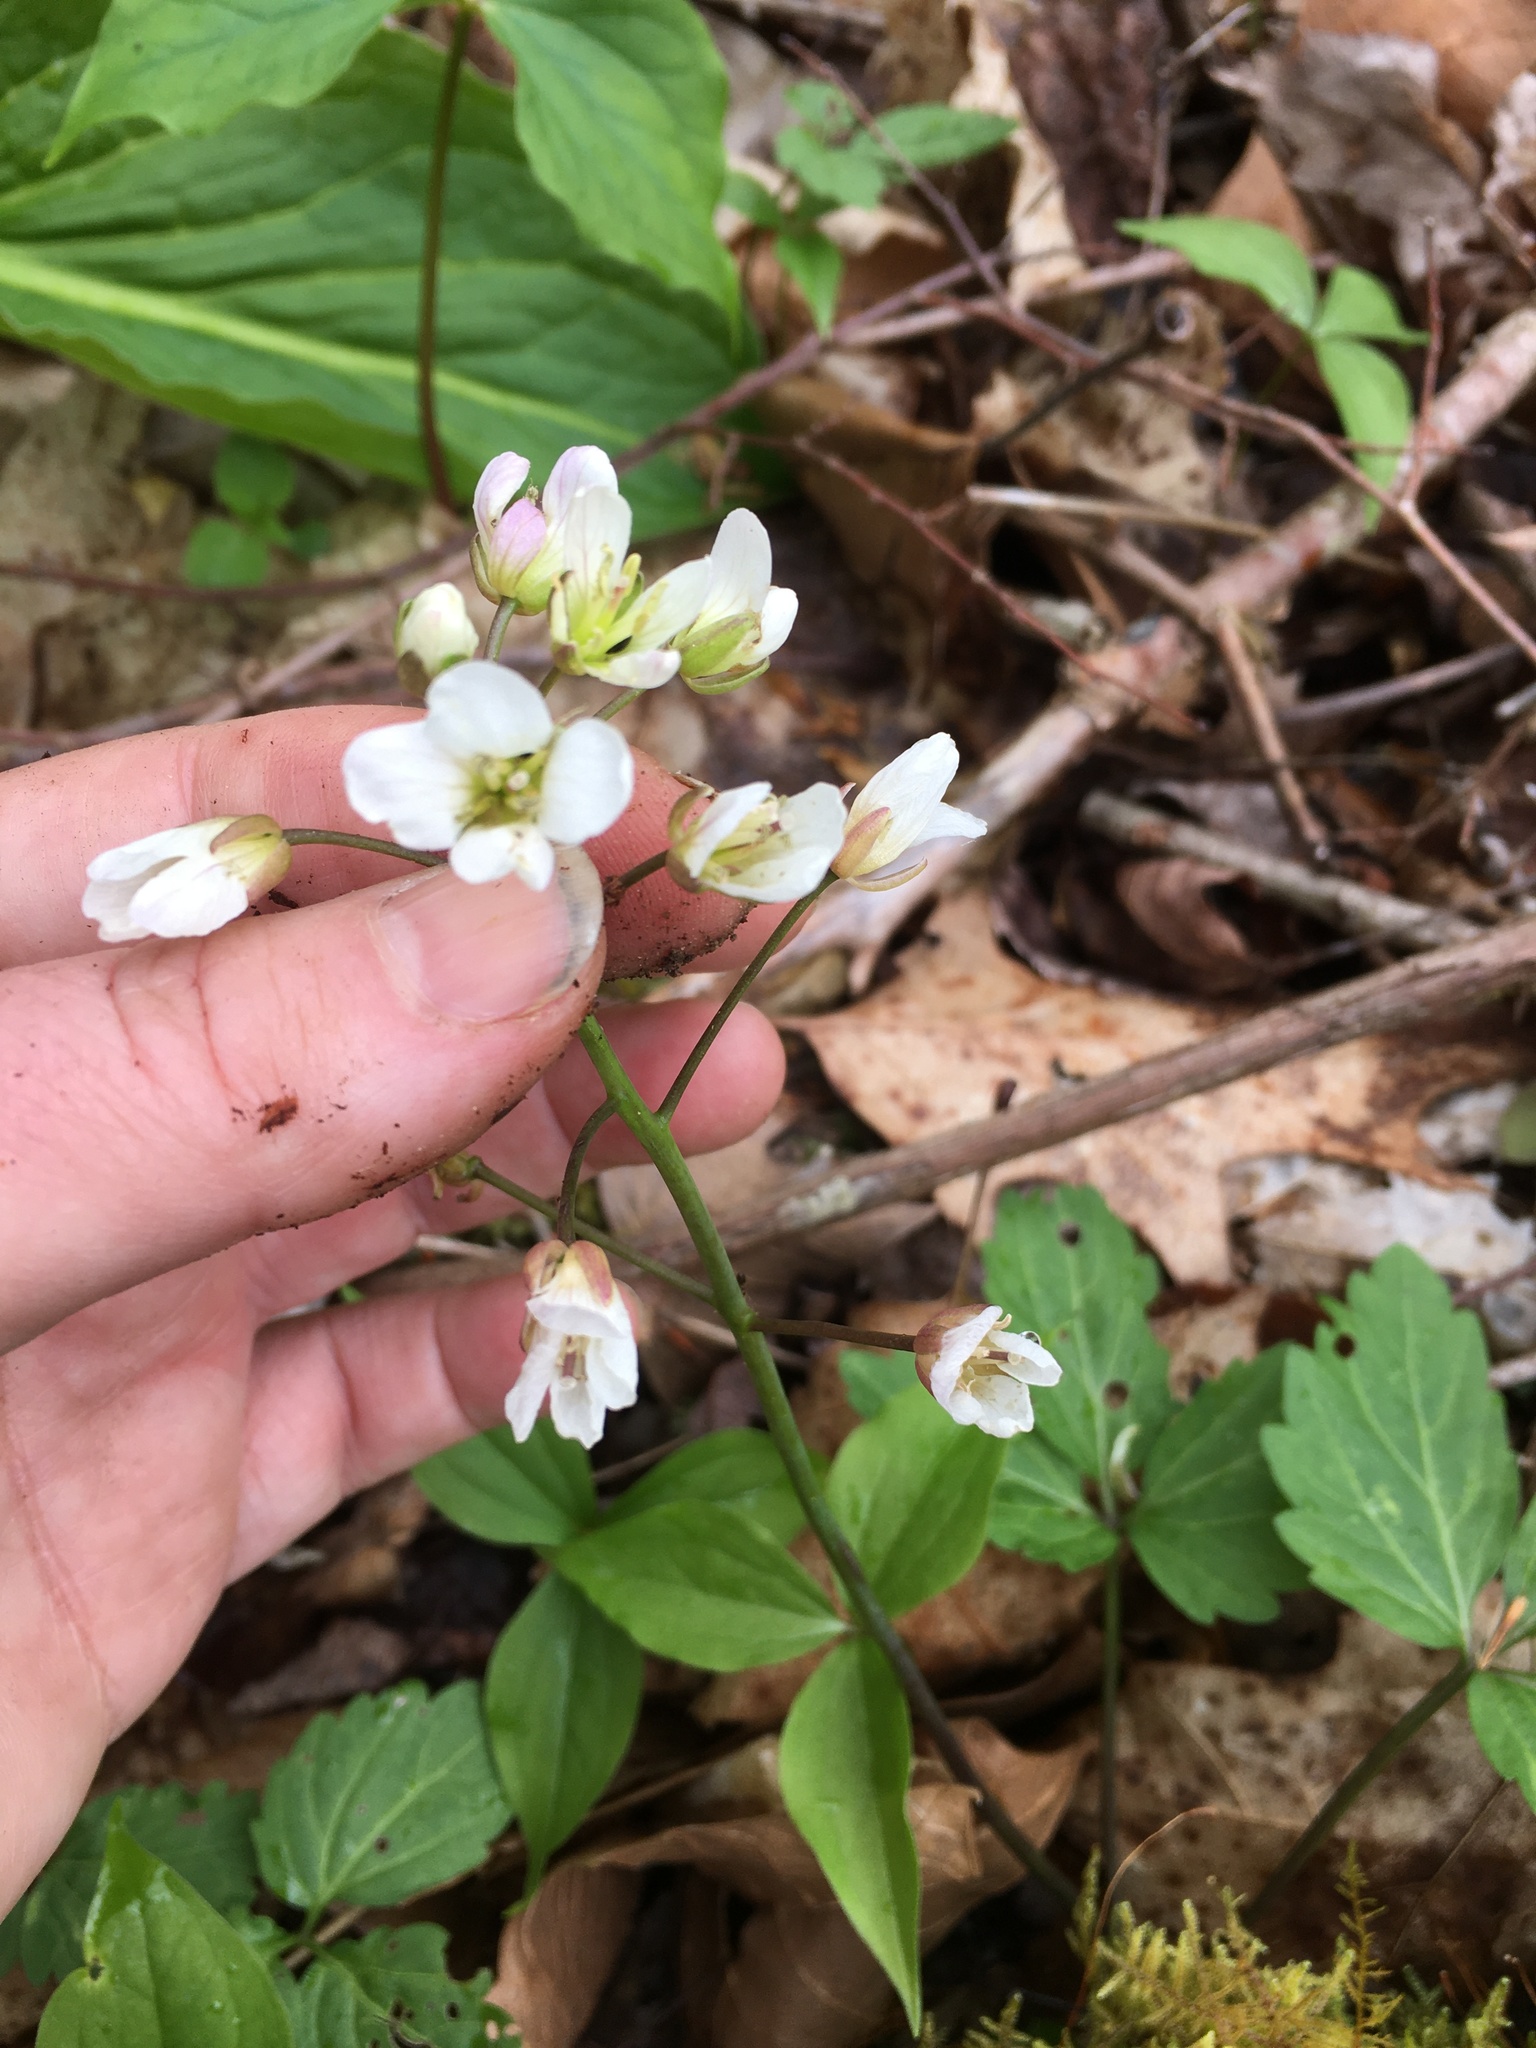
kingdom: Plantae
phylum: Tracheophyta
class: Magnoliopsida
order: Brassicales
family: Brassicaceae
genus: Cardamine
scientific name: Cardamine diphylla
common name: Broad-leaved toothwort
